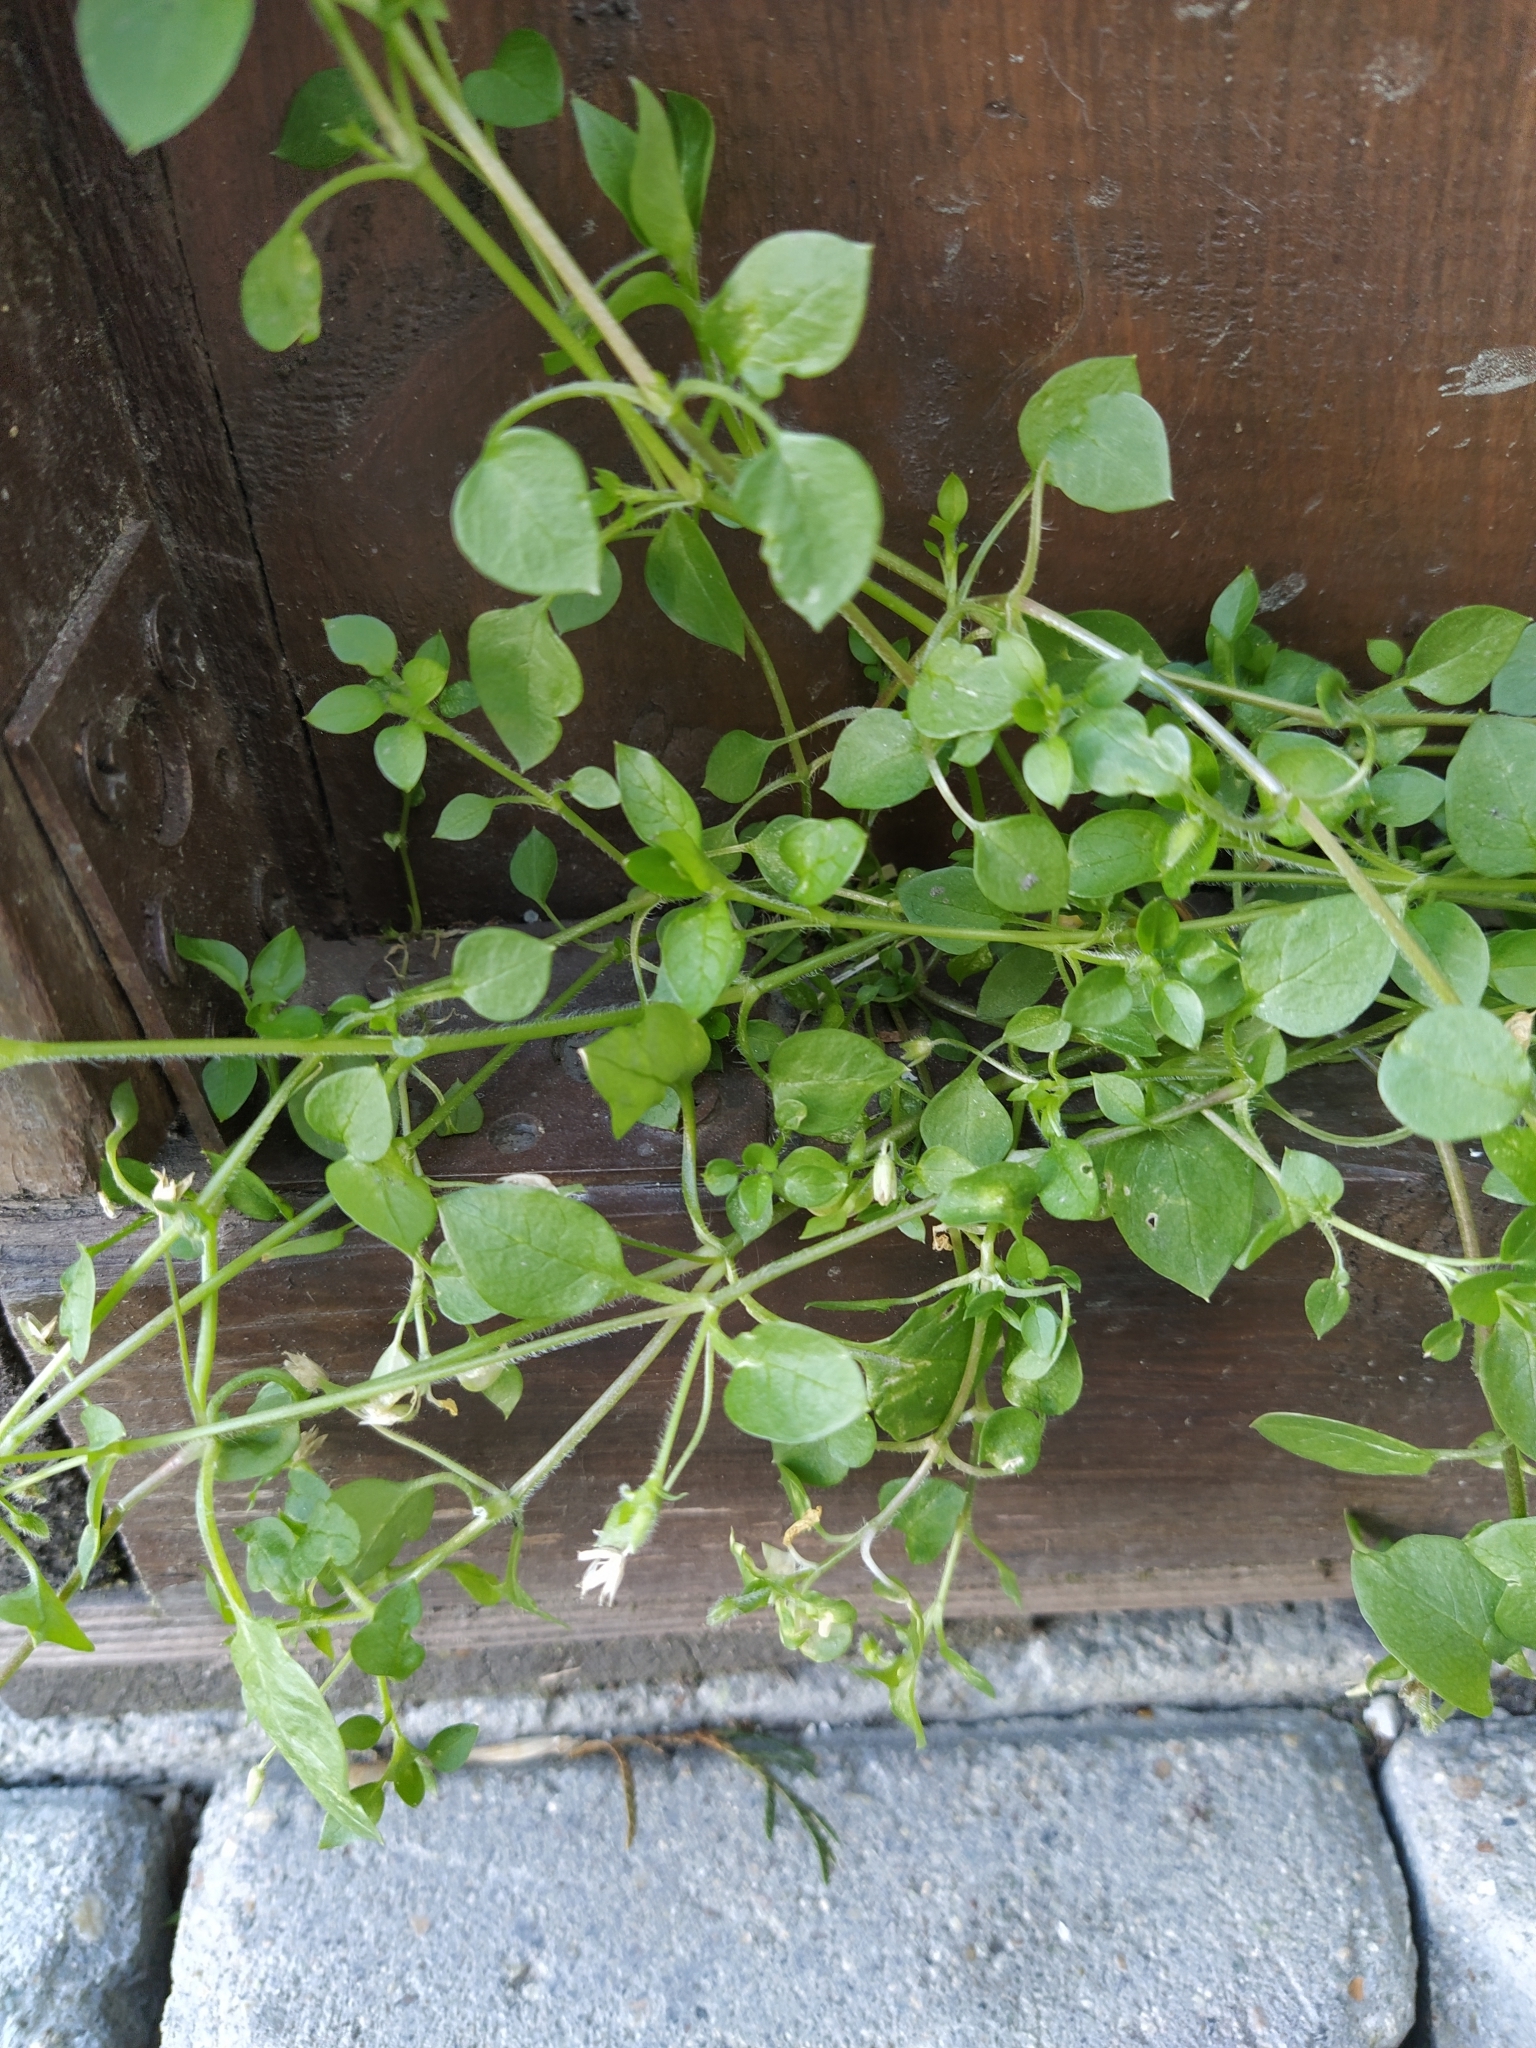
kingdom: Plantae
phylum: Tracheophyta
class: Magnoliopsida
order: Caryophyllales
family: Caryophyllaceae
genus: Stellaria
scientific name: Stellaria media
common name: Common chickweed
